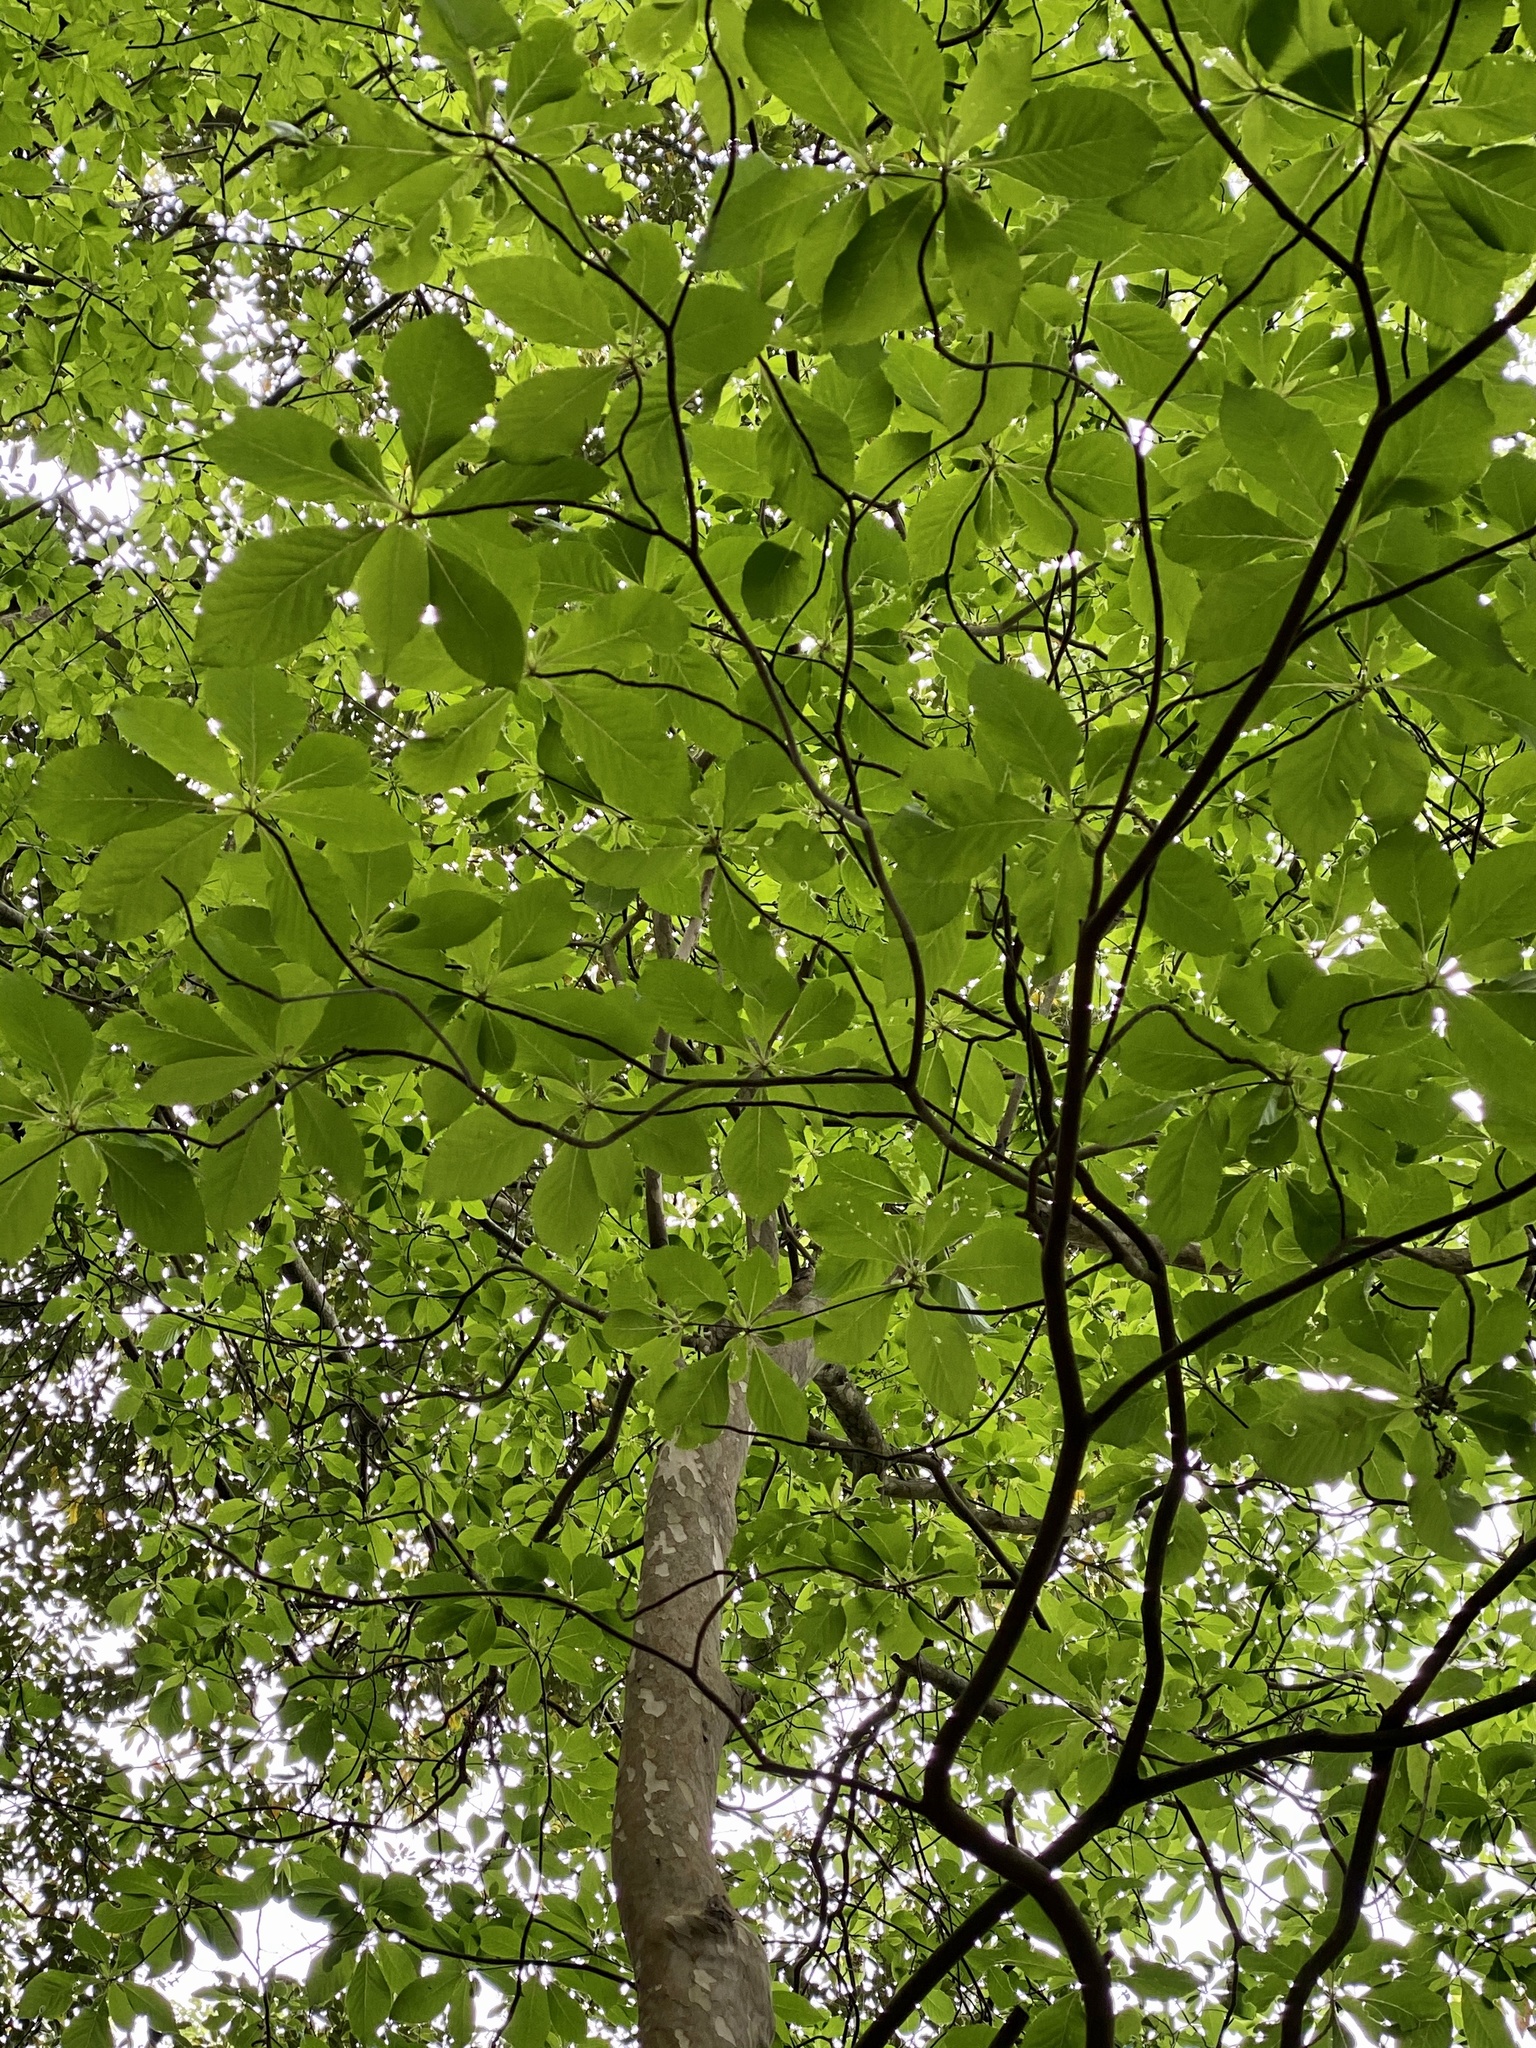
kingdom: Plantae
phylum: Tracheophyta
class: Magnoliopsida
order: Ericales
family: Clethraceae
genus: Clethra
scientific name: Clethra barbinervis
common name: Japanese clethra
